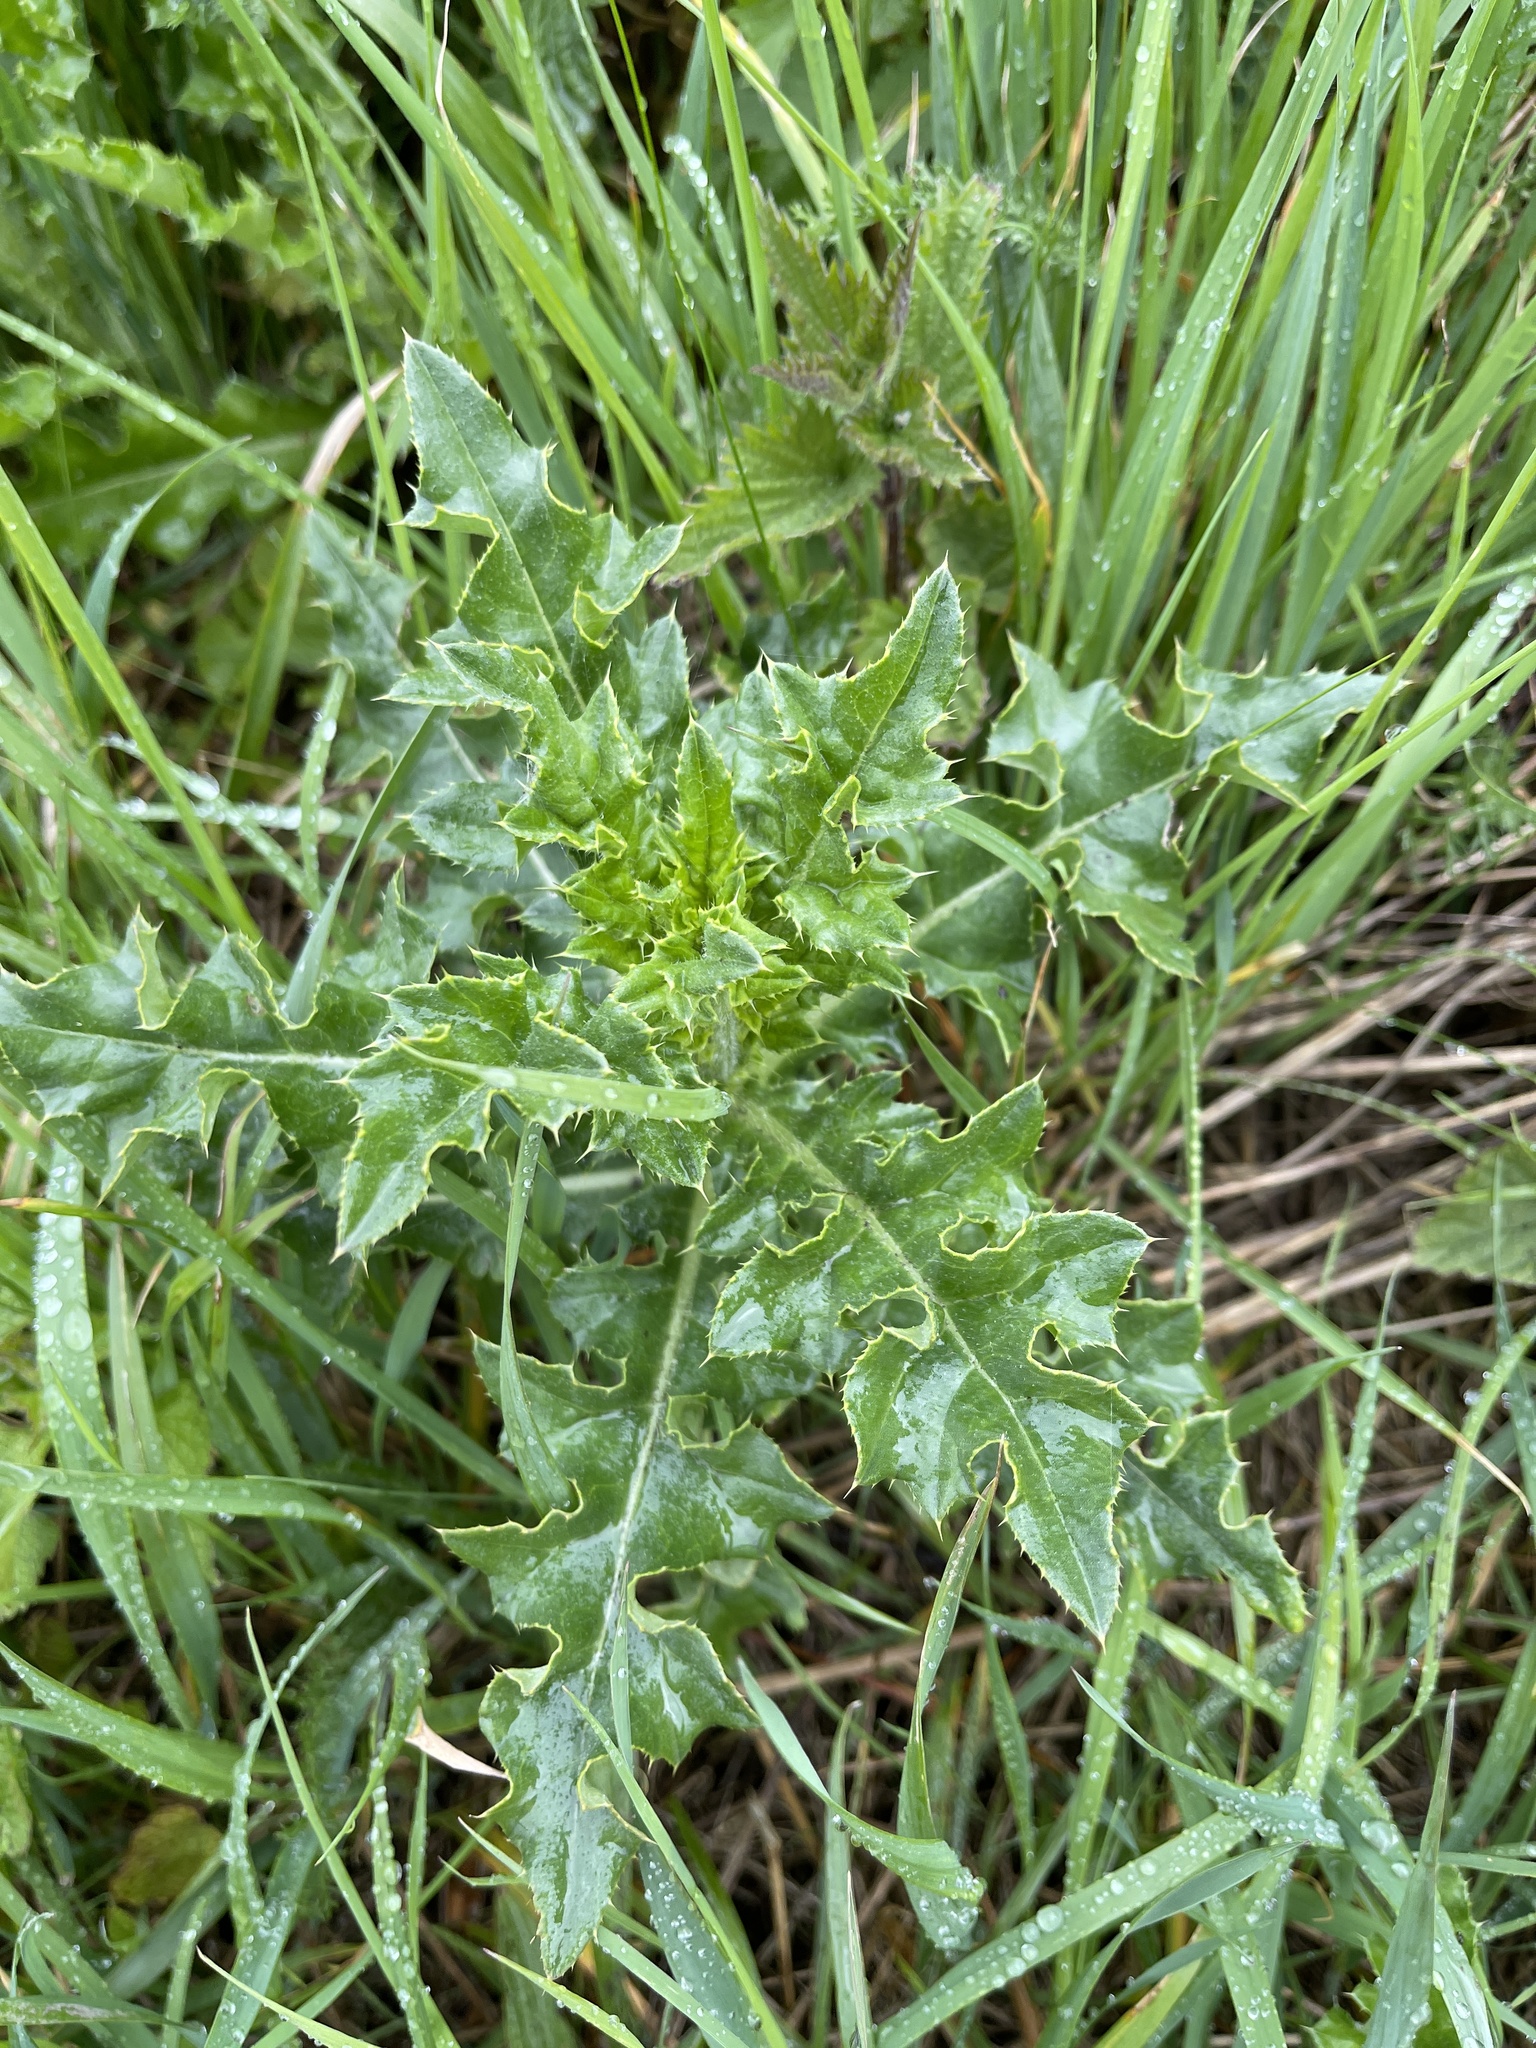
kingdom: Plantae
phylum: Tracheophyta
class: Magnoliopsida
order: Asterales
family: Asteraceae
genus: Cirsium
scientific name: Cirsium arvense
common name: Creeping thistle
